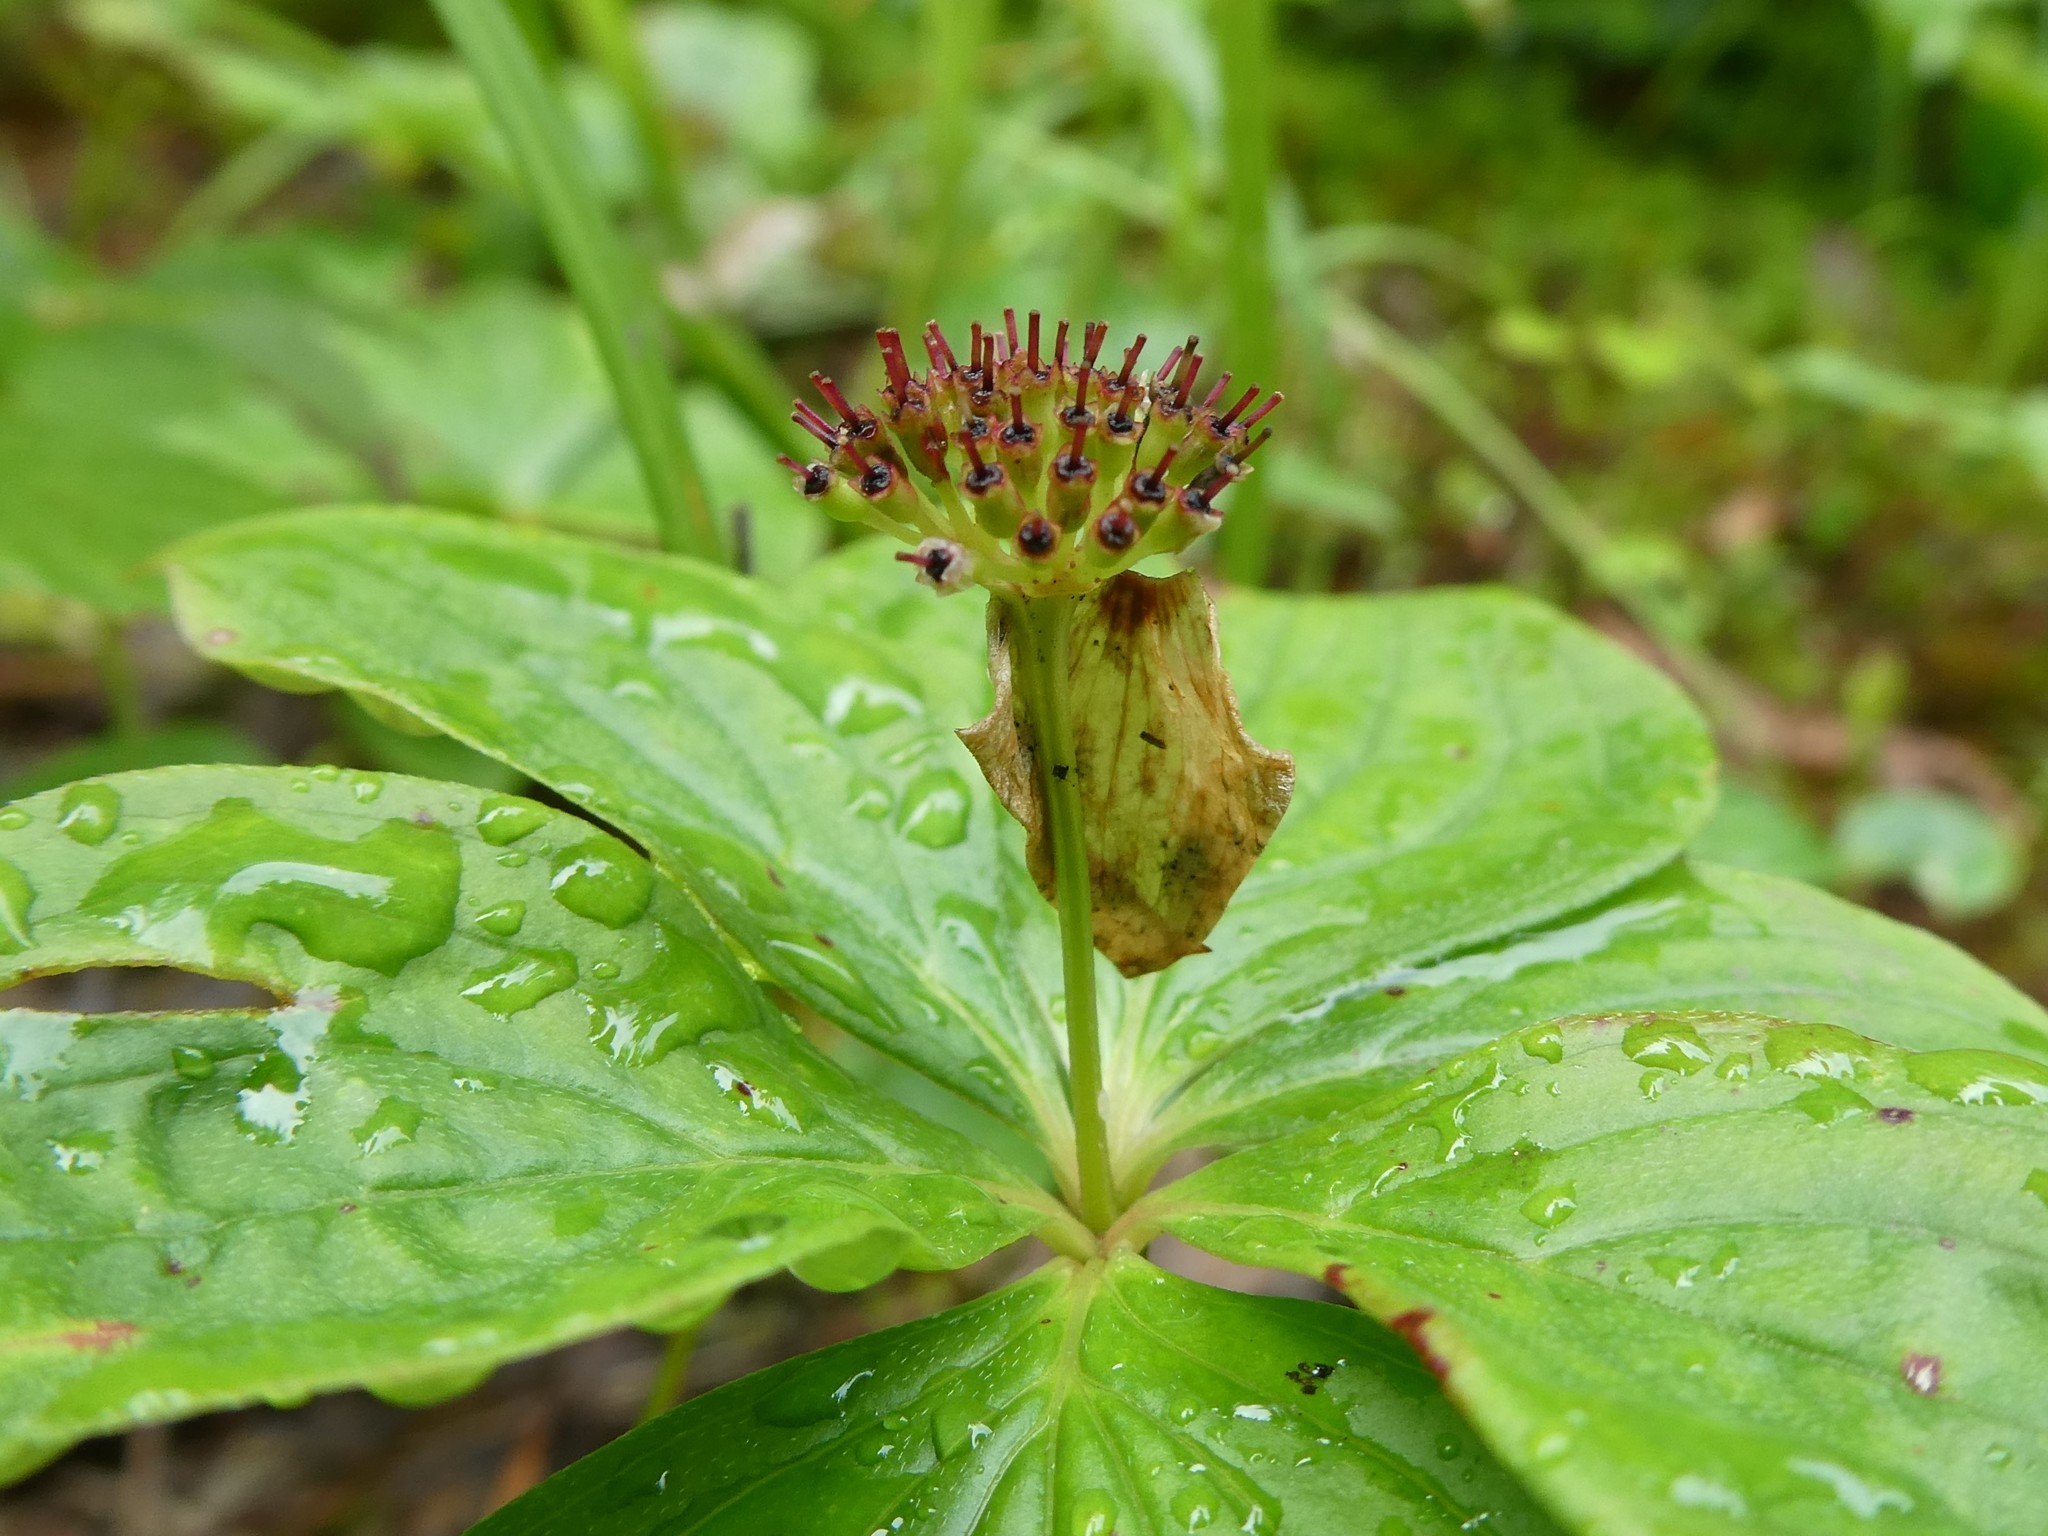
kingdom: Plantae
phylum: Tracheophyta
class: Magnoliopsida
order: Cornales
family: Cornaceae
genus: Cornus
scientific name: Cornus canadensis
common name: Creeping dogwood
